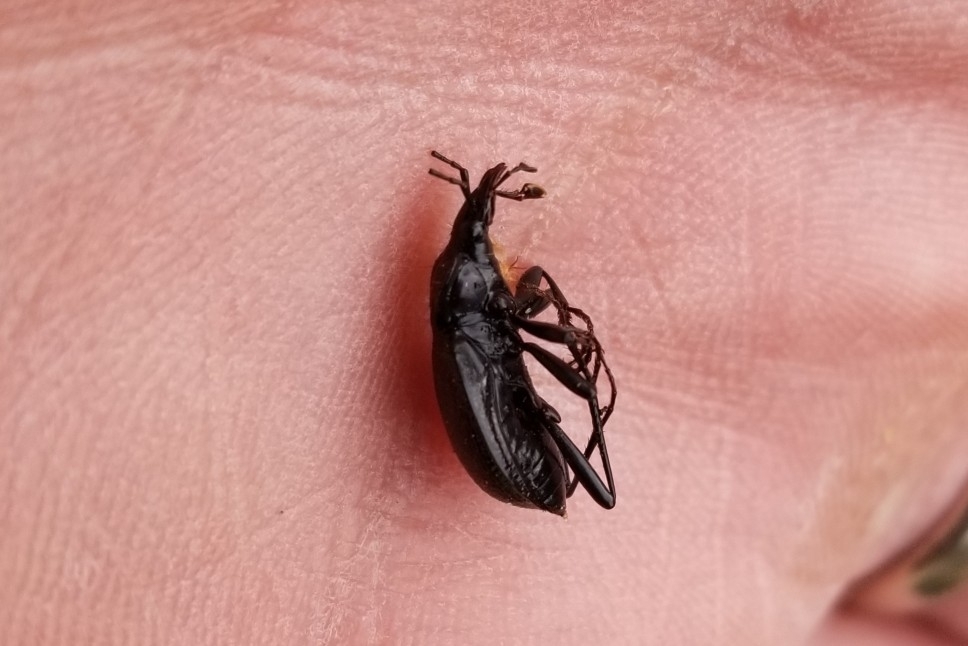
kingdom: Animalia
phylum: Arthropoda
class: Insecta
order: Coleoptera
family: Carabidae
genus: Scaphinotus
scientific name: Scaphinotus marginatus
